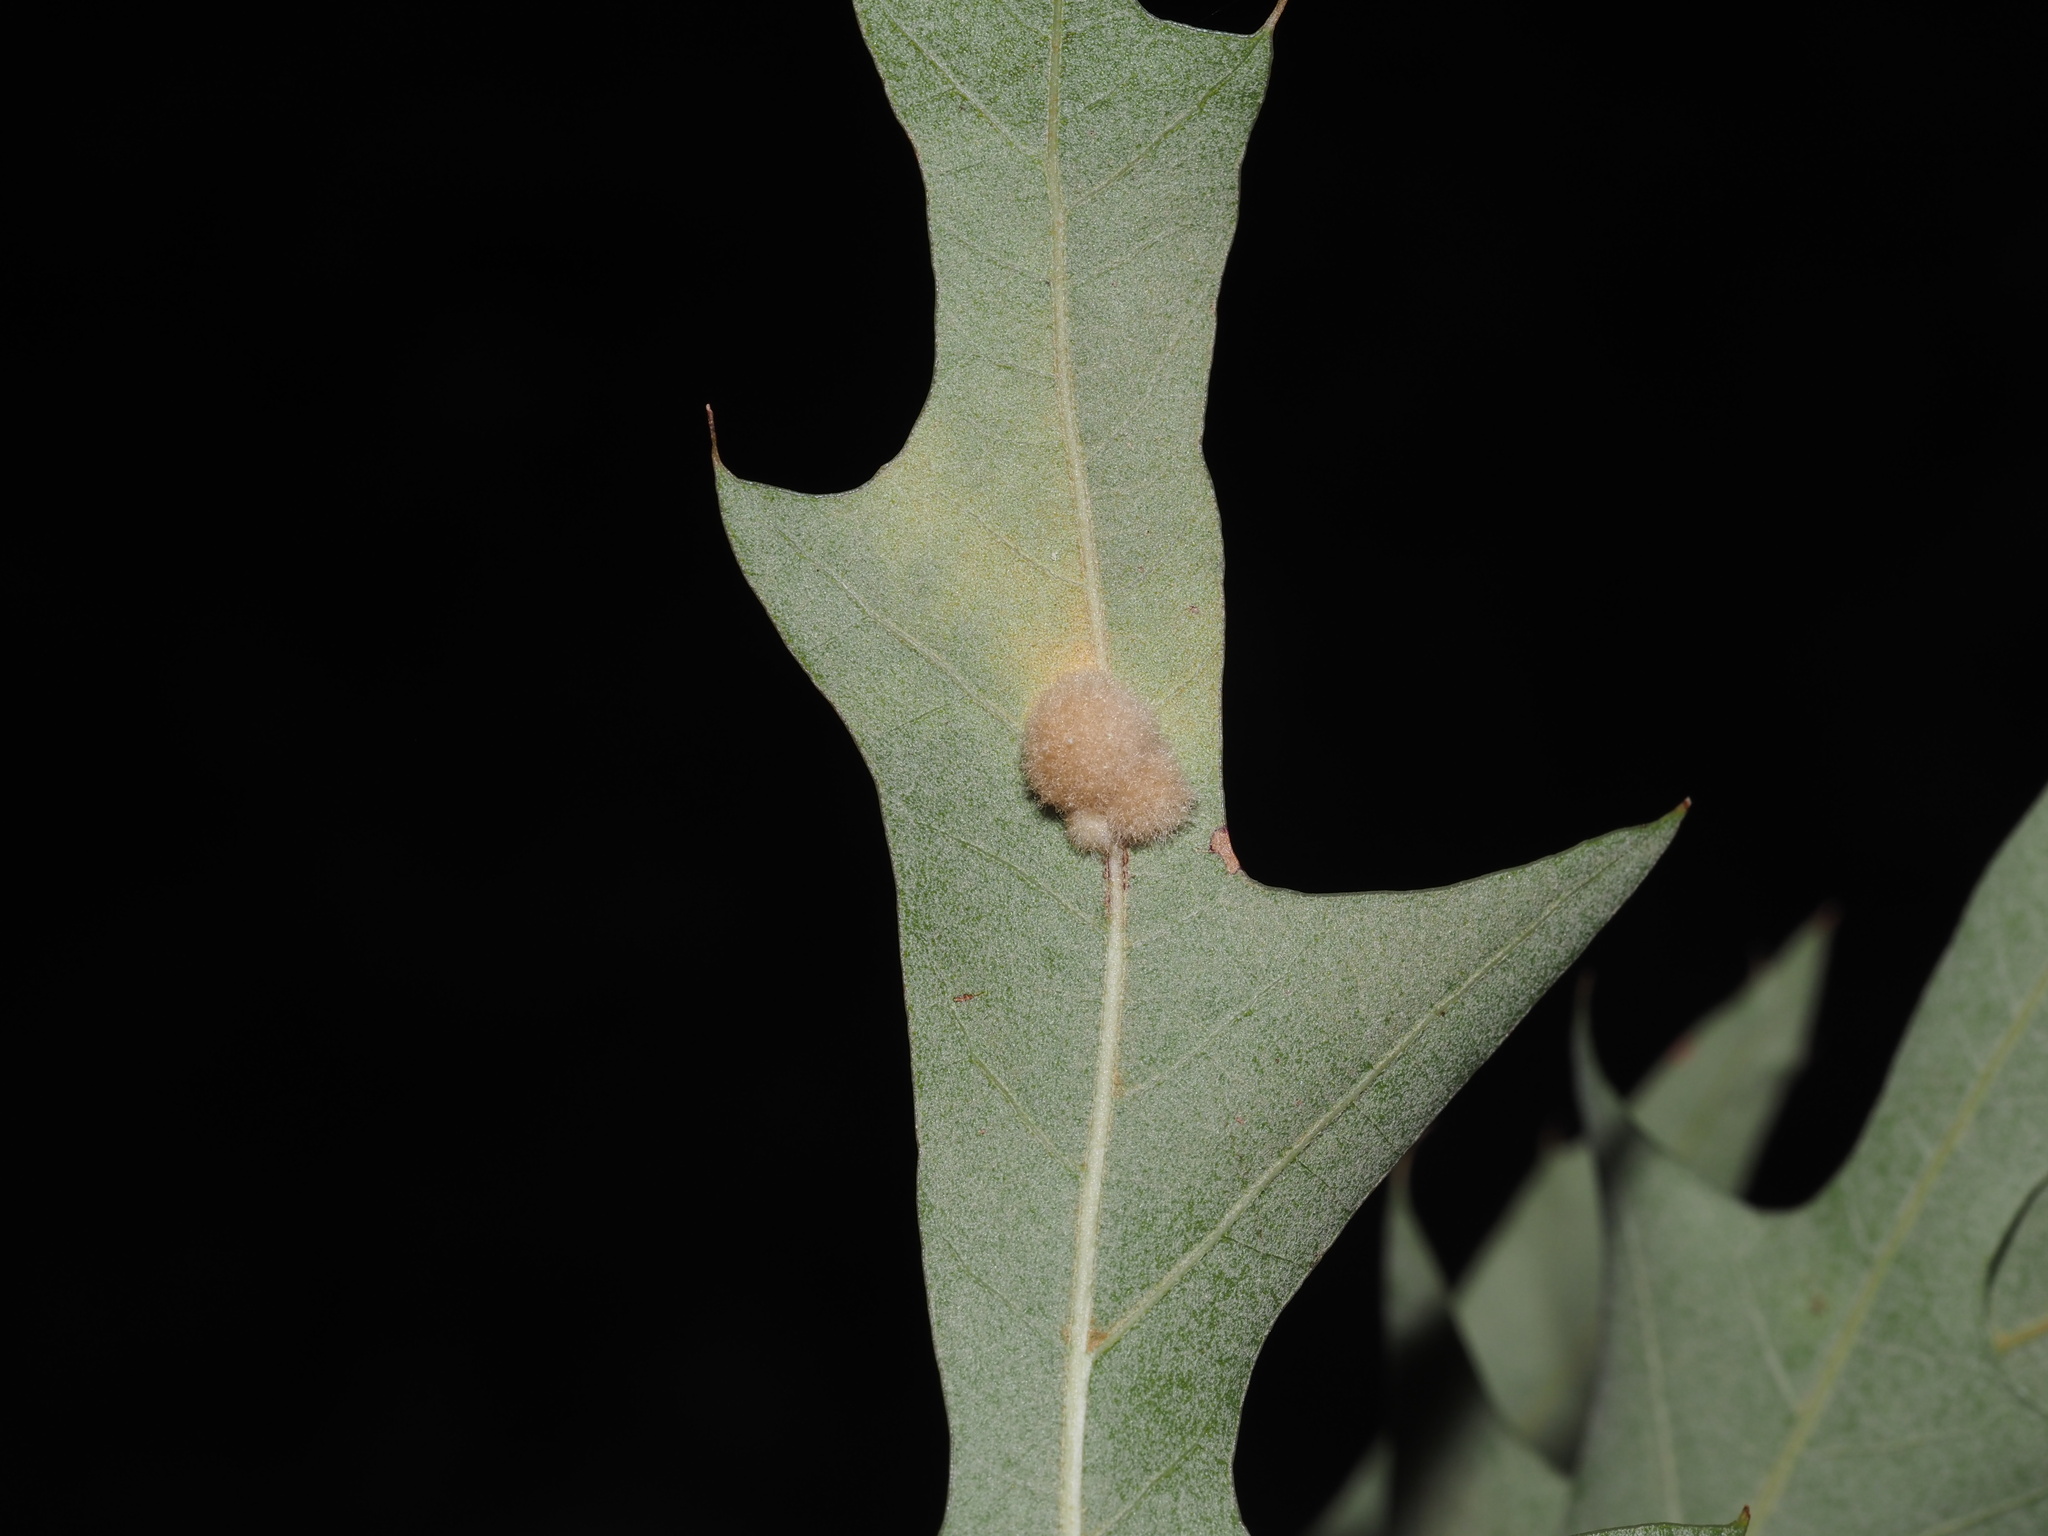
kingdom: Animalia
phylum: Arthropoda
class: Insecta
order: Hymenoptera
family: Cynipidae
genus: Callirhytis
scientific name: Callirhytis
